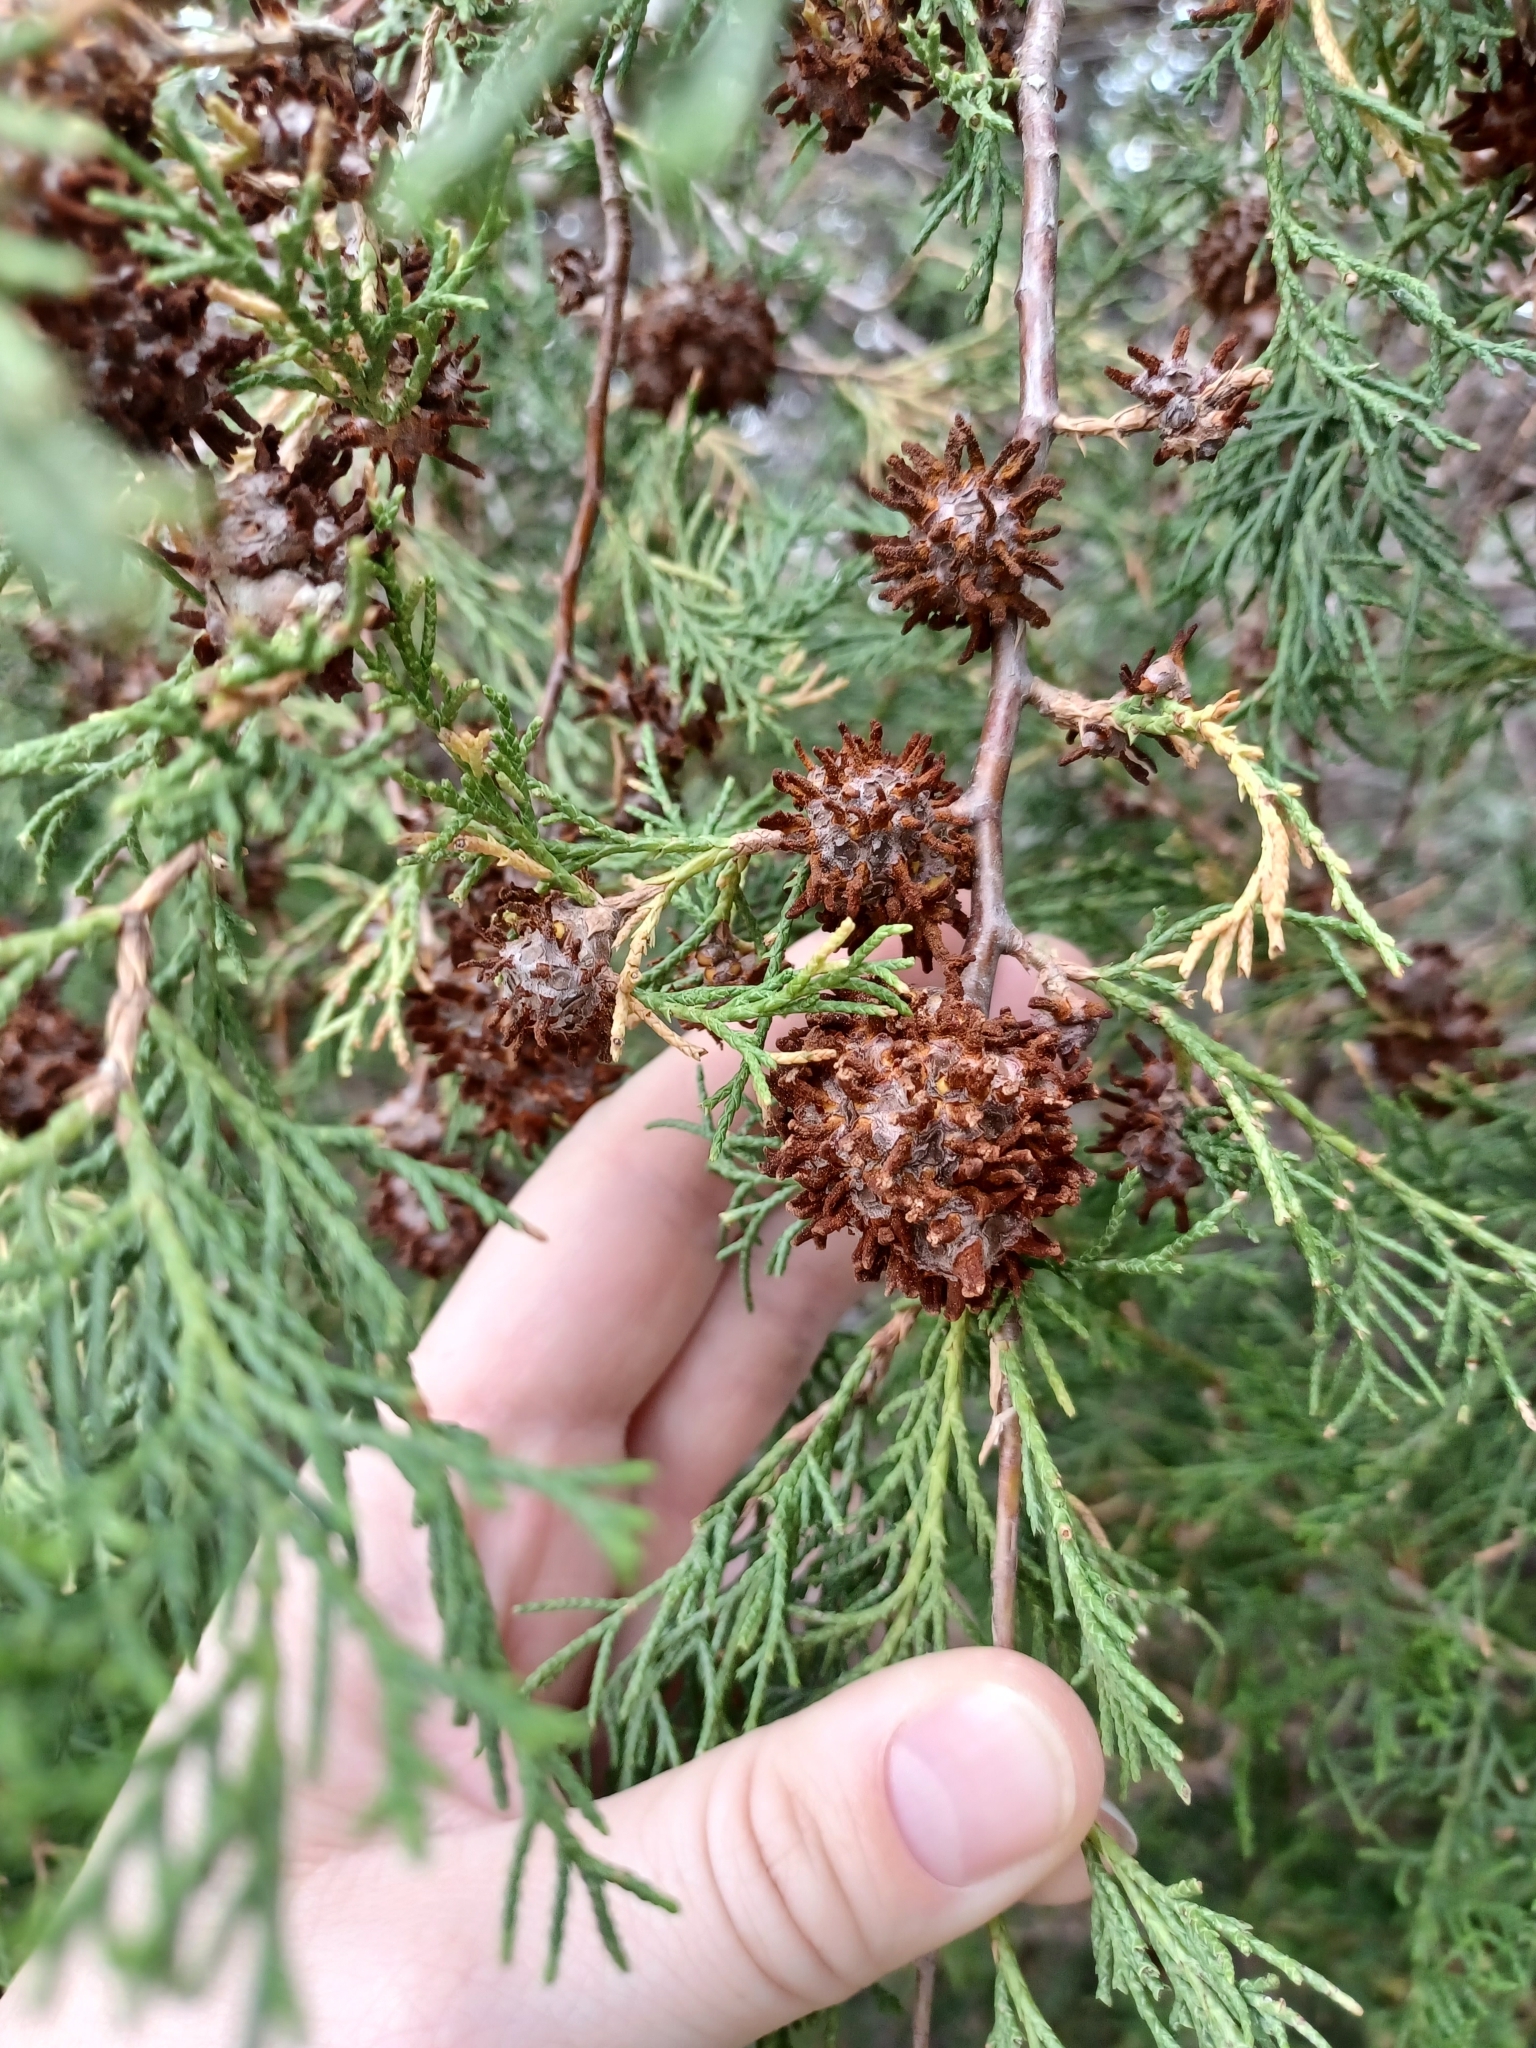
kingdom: Fungi
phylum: Basidiomycota
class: Pucciniomycetes
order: Pucciniales
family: Gymnosporangiaceae
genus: Gymnosporangium
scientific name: Gymnosporangium juniperi-virginianae
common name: Juniper-apple rust
